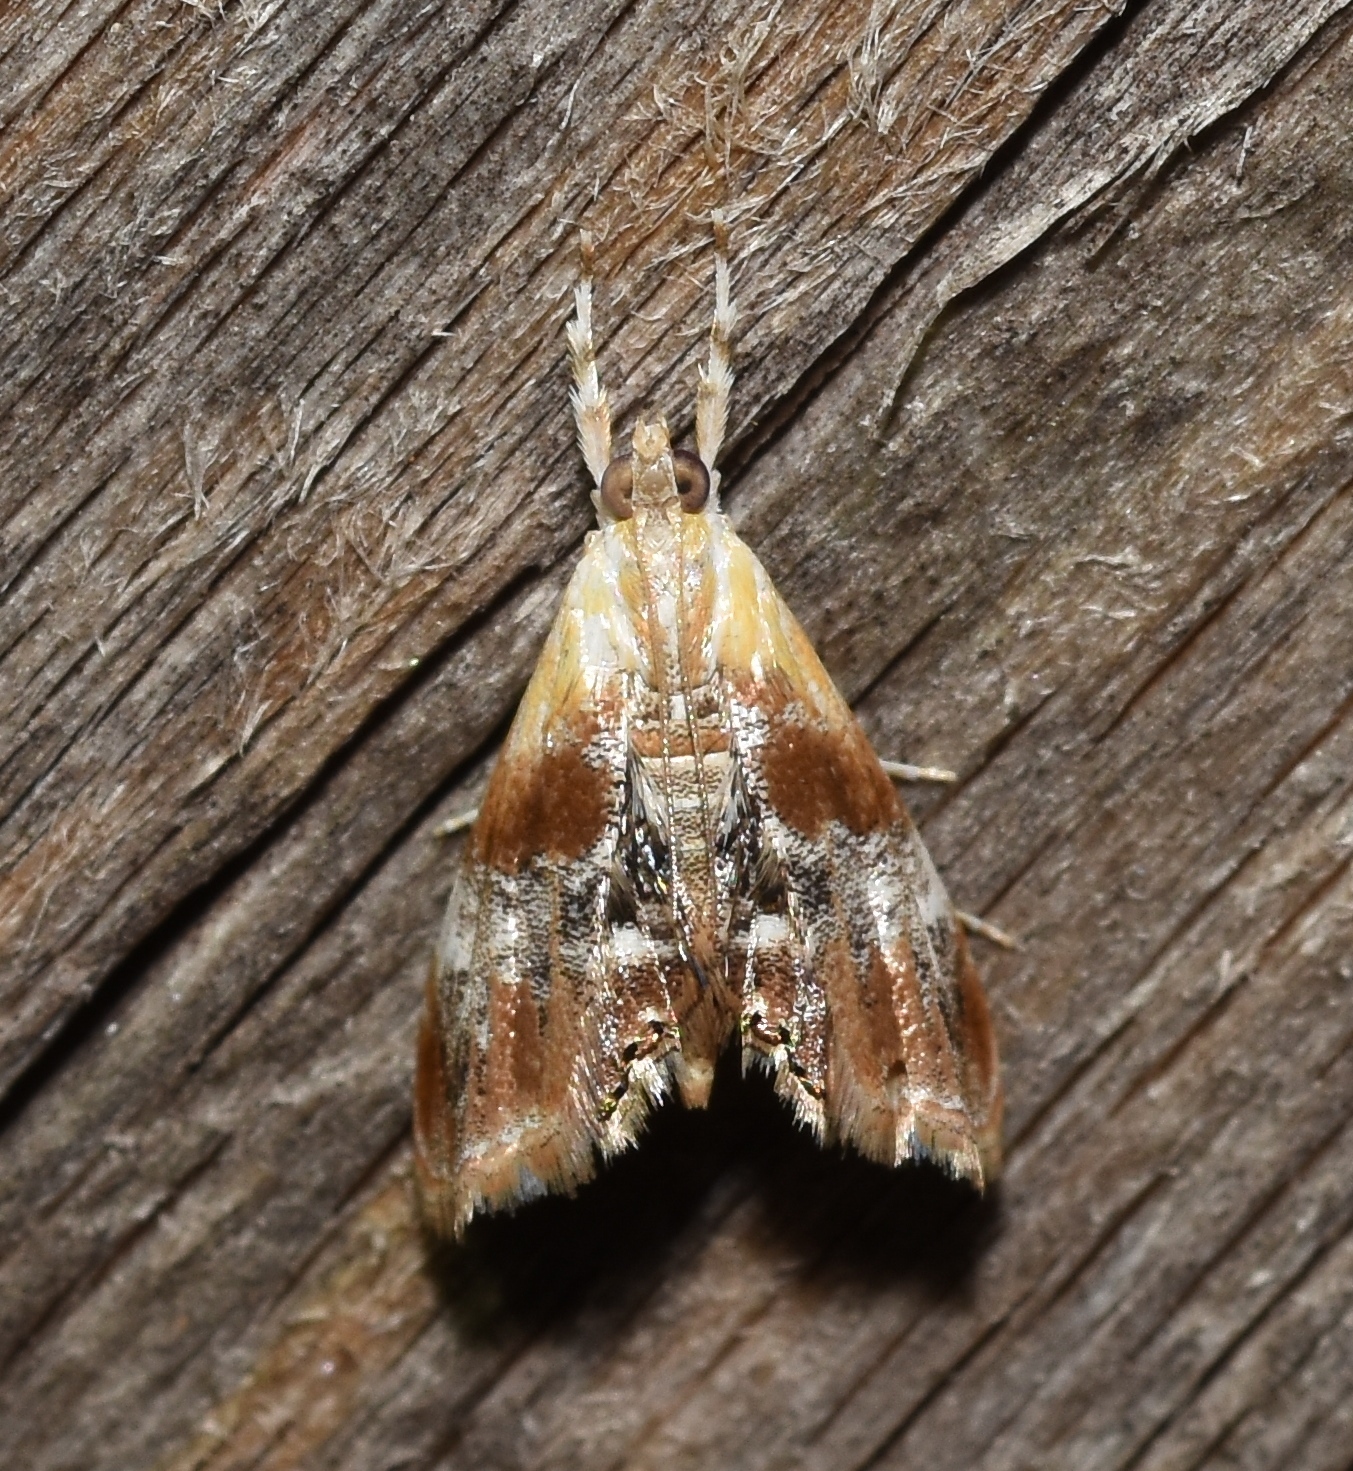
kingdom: Animalia
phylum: Arthropoda
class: Insecta
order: Lepidoptera
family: Crambidae
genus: Dicymolomia
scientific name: Dicymolomia julianalis
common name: Julia's dicymolomia moth
